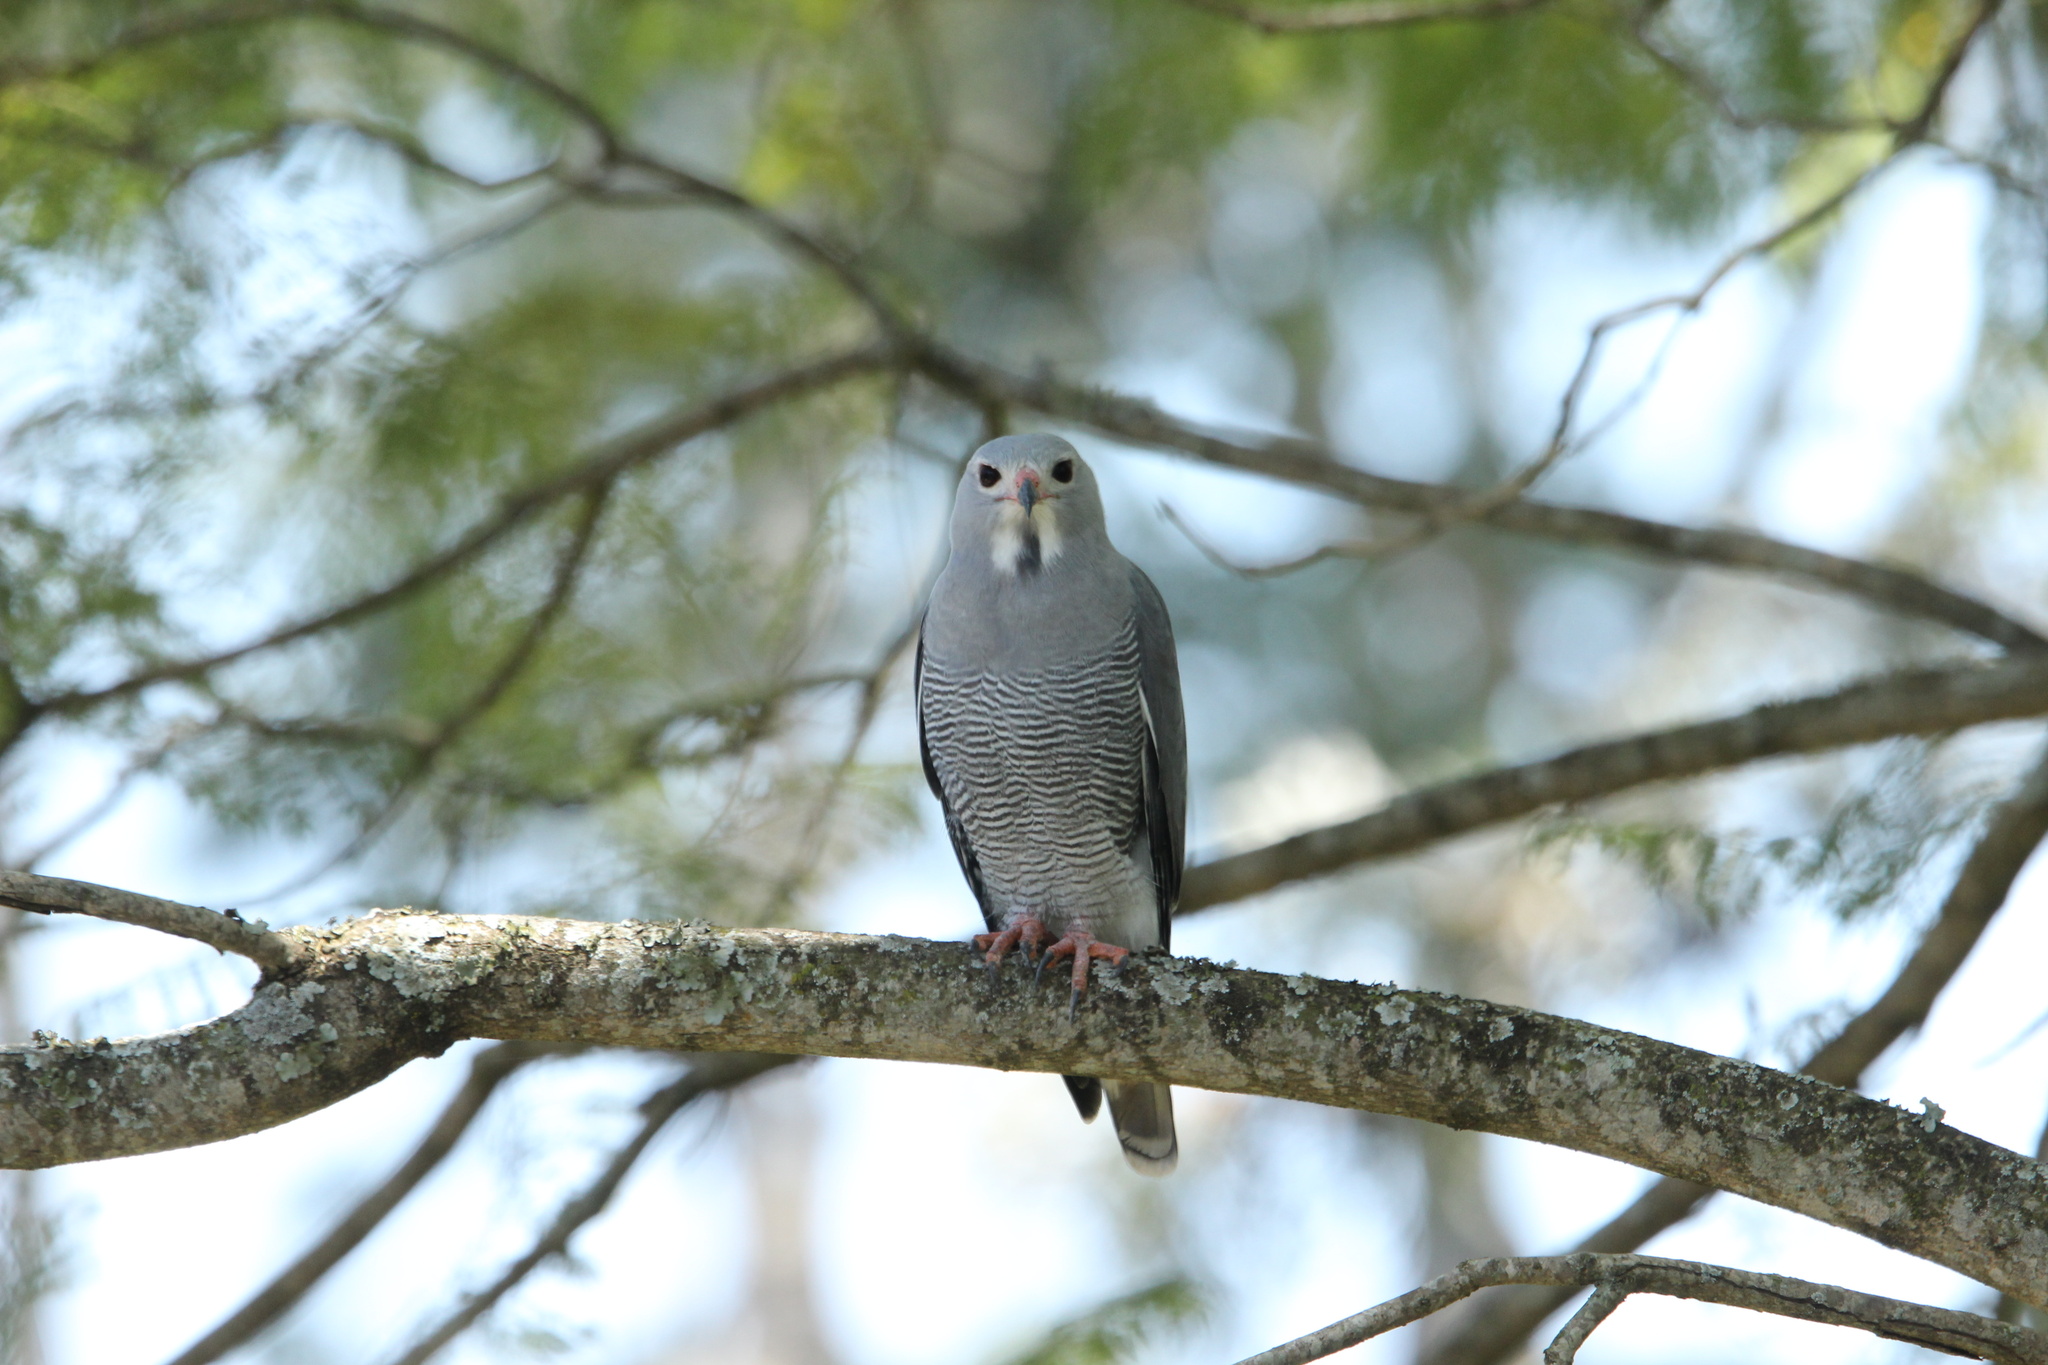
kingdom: Animalia
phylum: Chordata
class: Aves
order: Accipitriformes
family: Accipitridae
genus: Kaupifalco
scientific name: Kaupifalco monogrammicus
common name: Lizard buzzard
